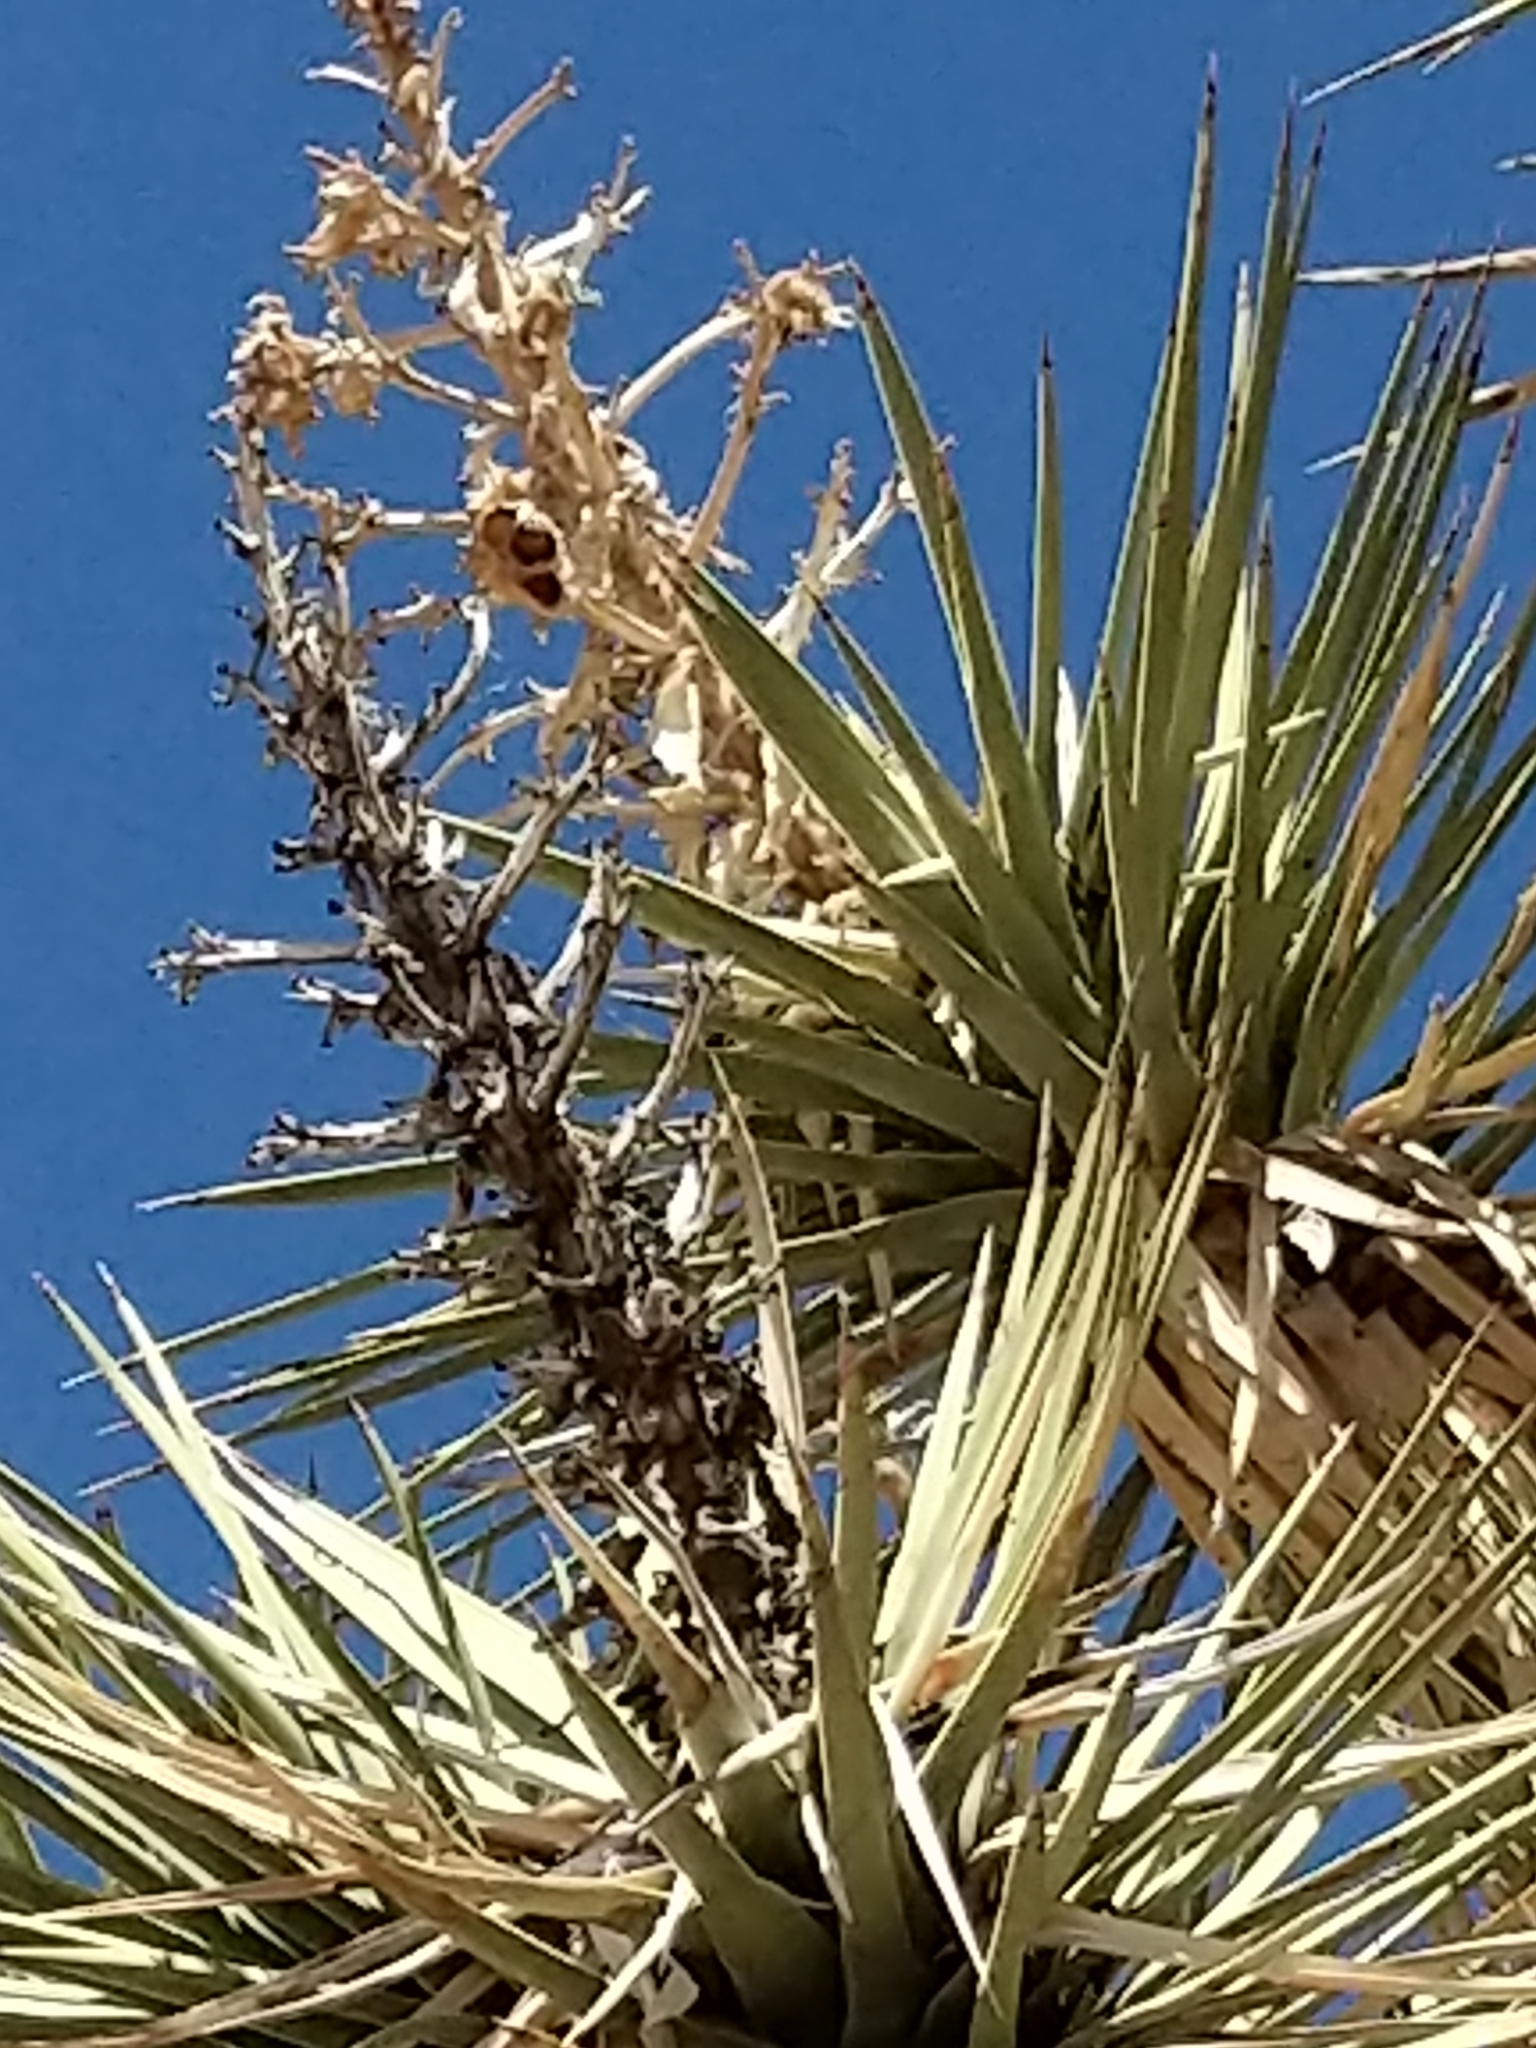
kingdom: Plantae
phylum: Tracheophyta
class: Liliopsida
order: Asparagales
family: Asparagaceae
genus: Yucca
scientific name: Yucca brevifolia
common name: Joshua tree
